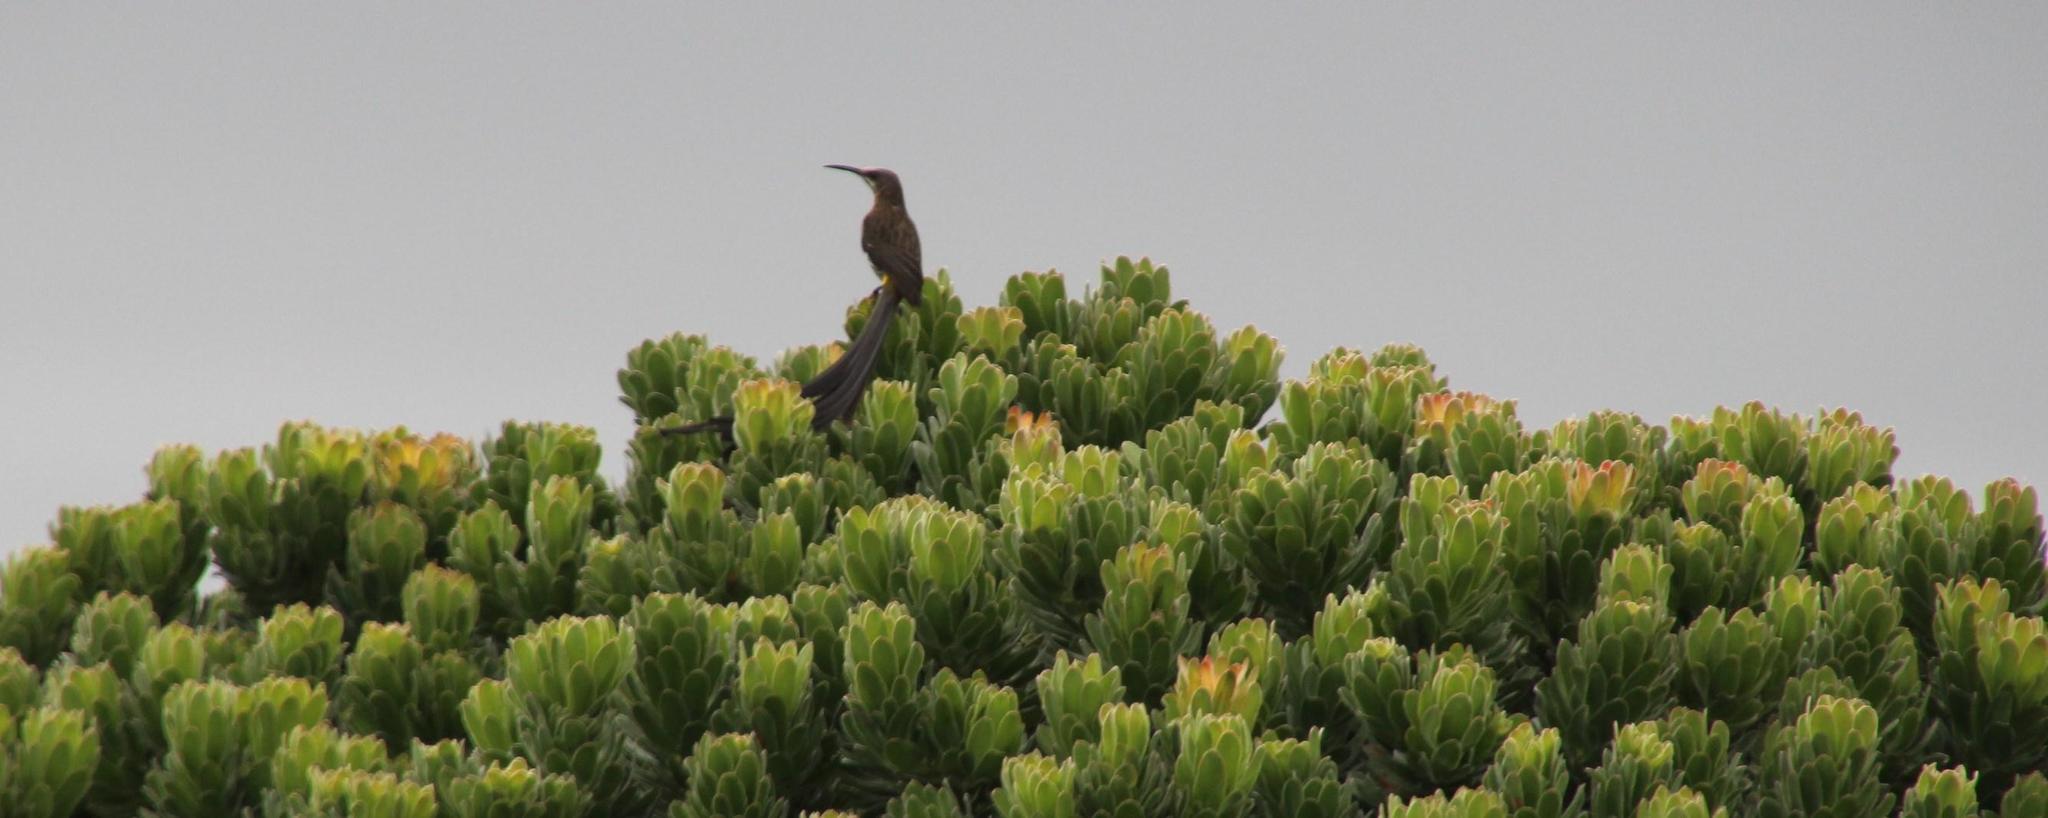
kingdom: Animalia
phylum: Chordata
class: Aves
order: Passeriformes
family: Promeropidae
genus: Promerops
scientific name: Promerops cafer
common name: Cape sugarbird
